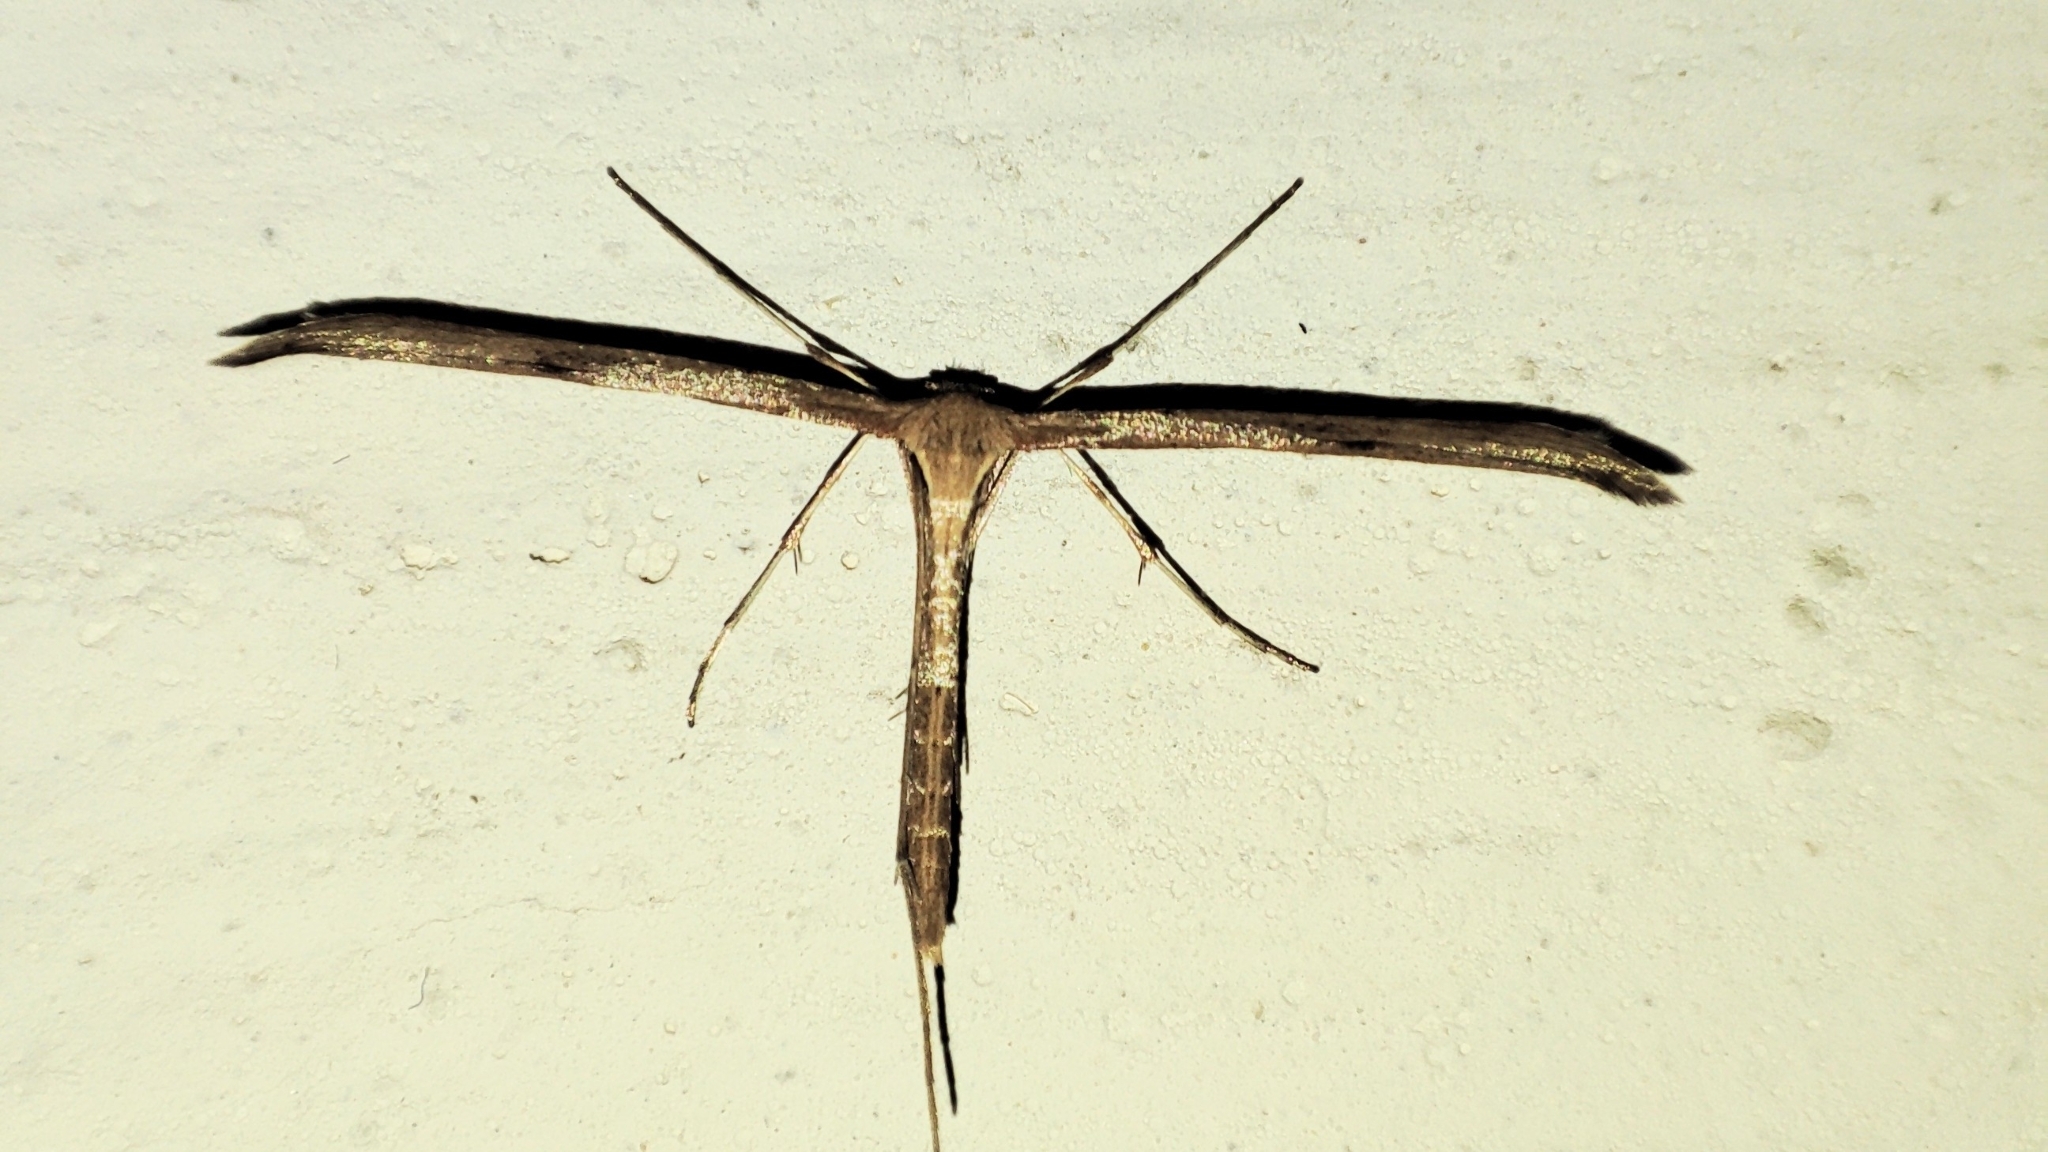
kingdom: Animalia
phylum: Arthropoda
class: Insecta
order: Lepidoptera
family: Pterophoridae
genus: Emmelina
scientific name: Emmelina monodactyla
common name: Common plume
